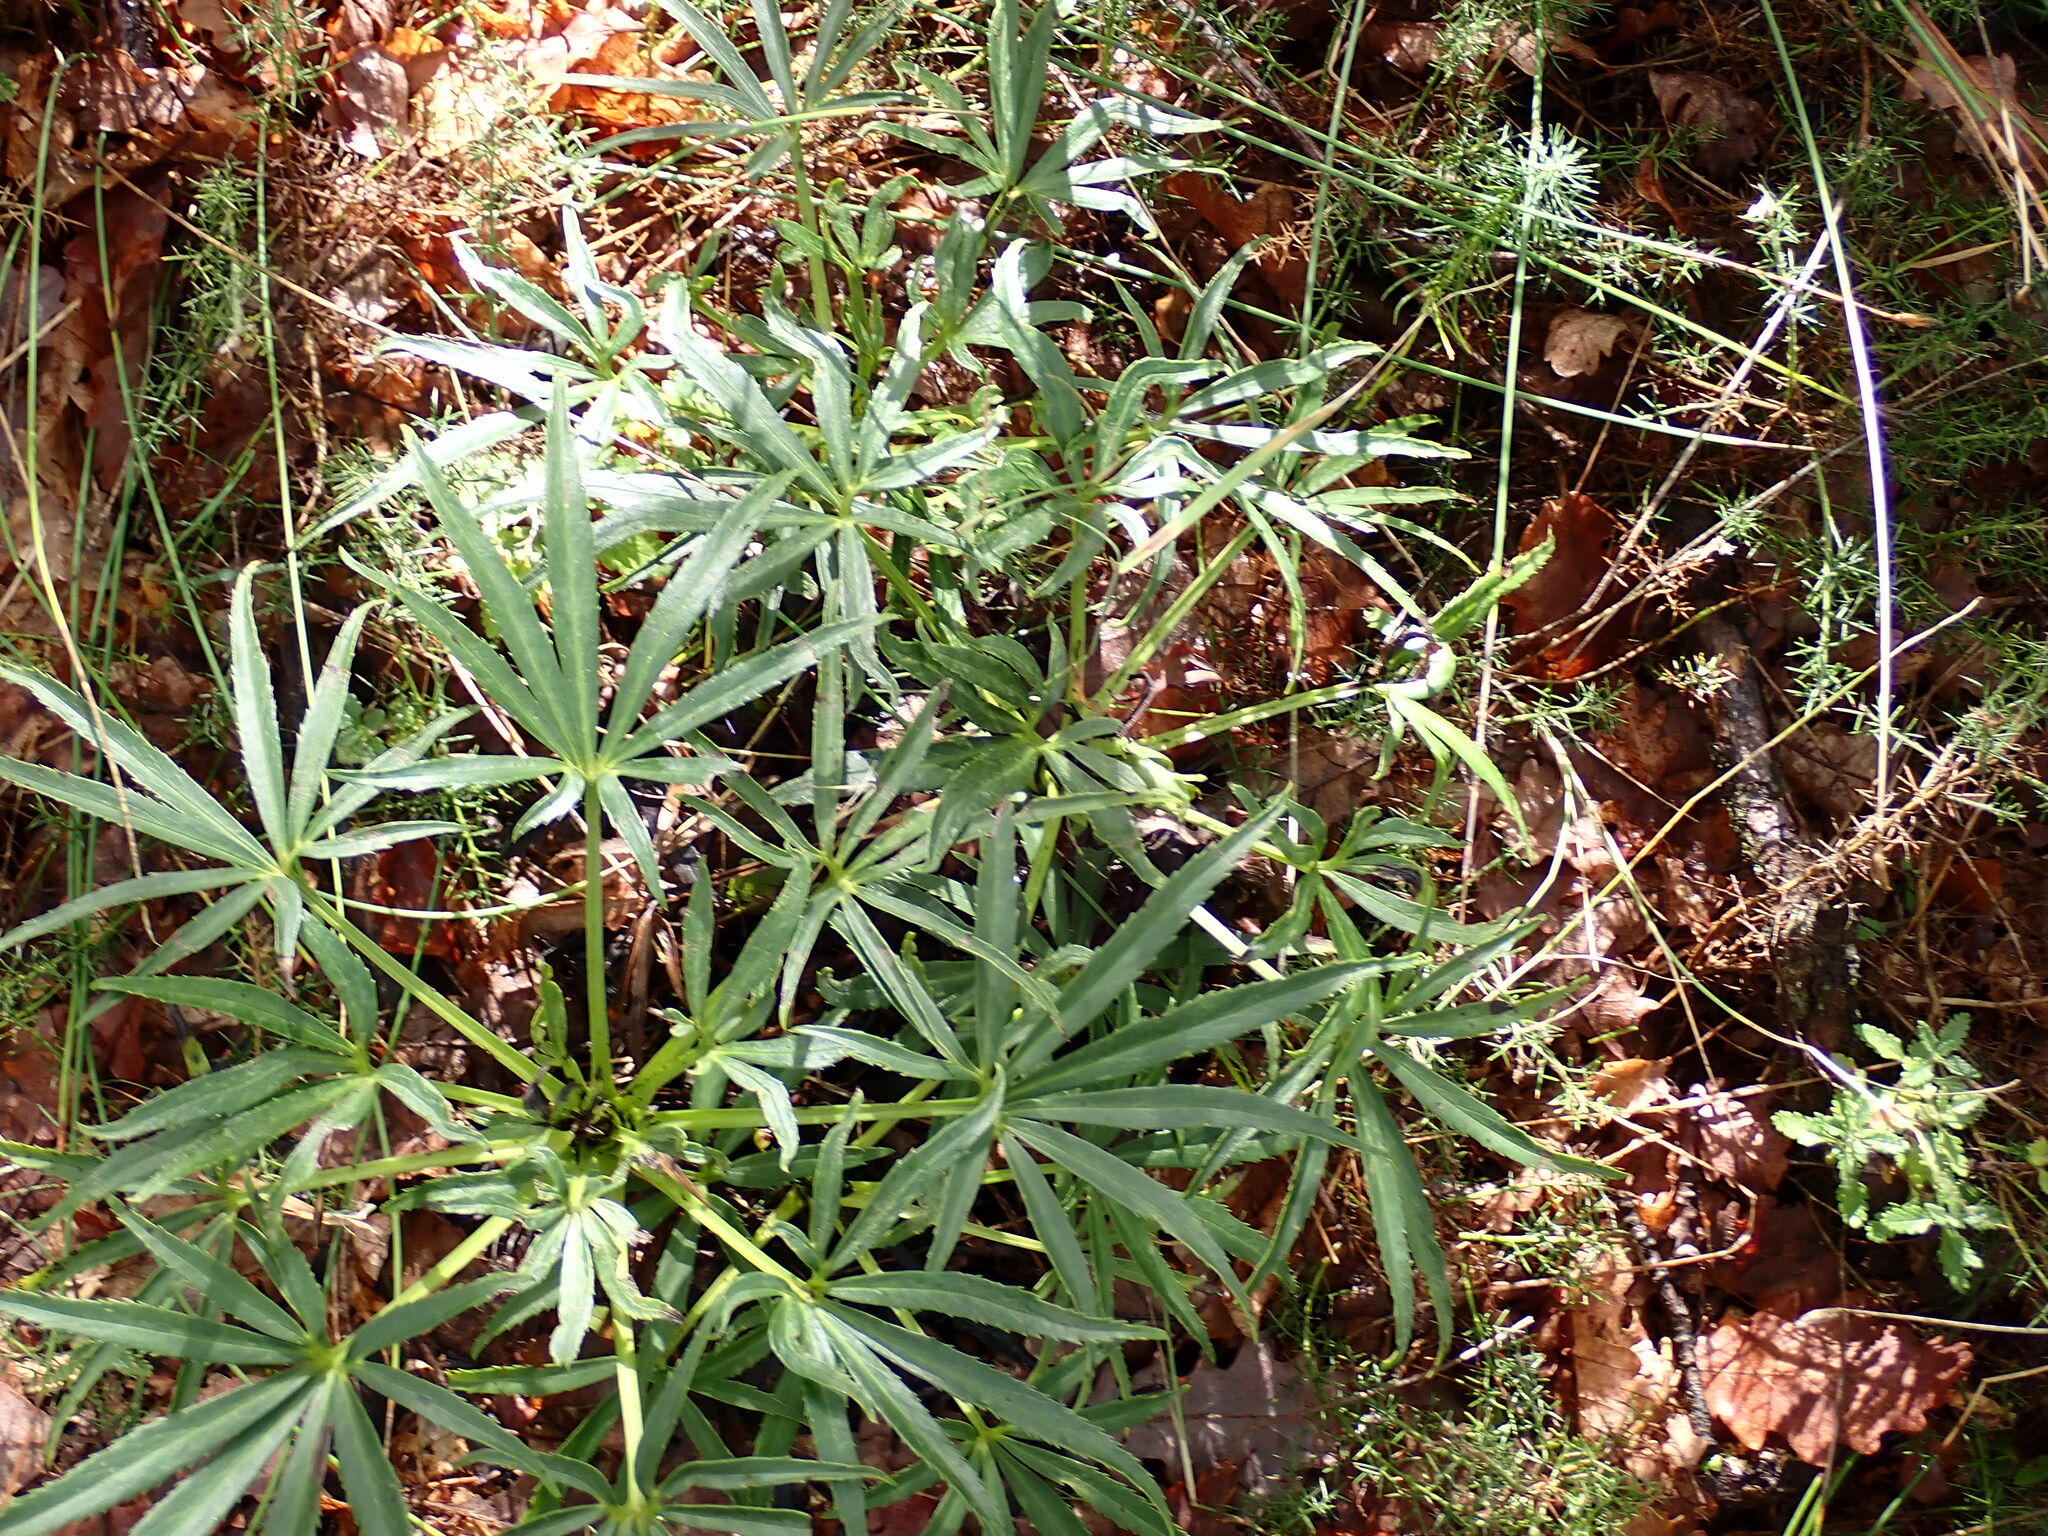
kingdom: Plantae
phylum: Tracheophyta
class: Magnoliopsida
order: Ranunculales
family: Ranunculaceae
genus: Helleborus
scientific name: Helleborus foetidus
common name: Stinking hellebore
